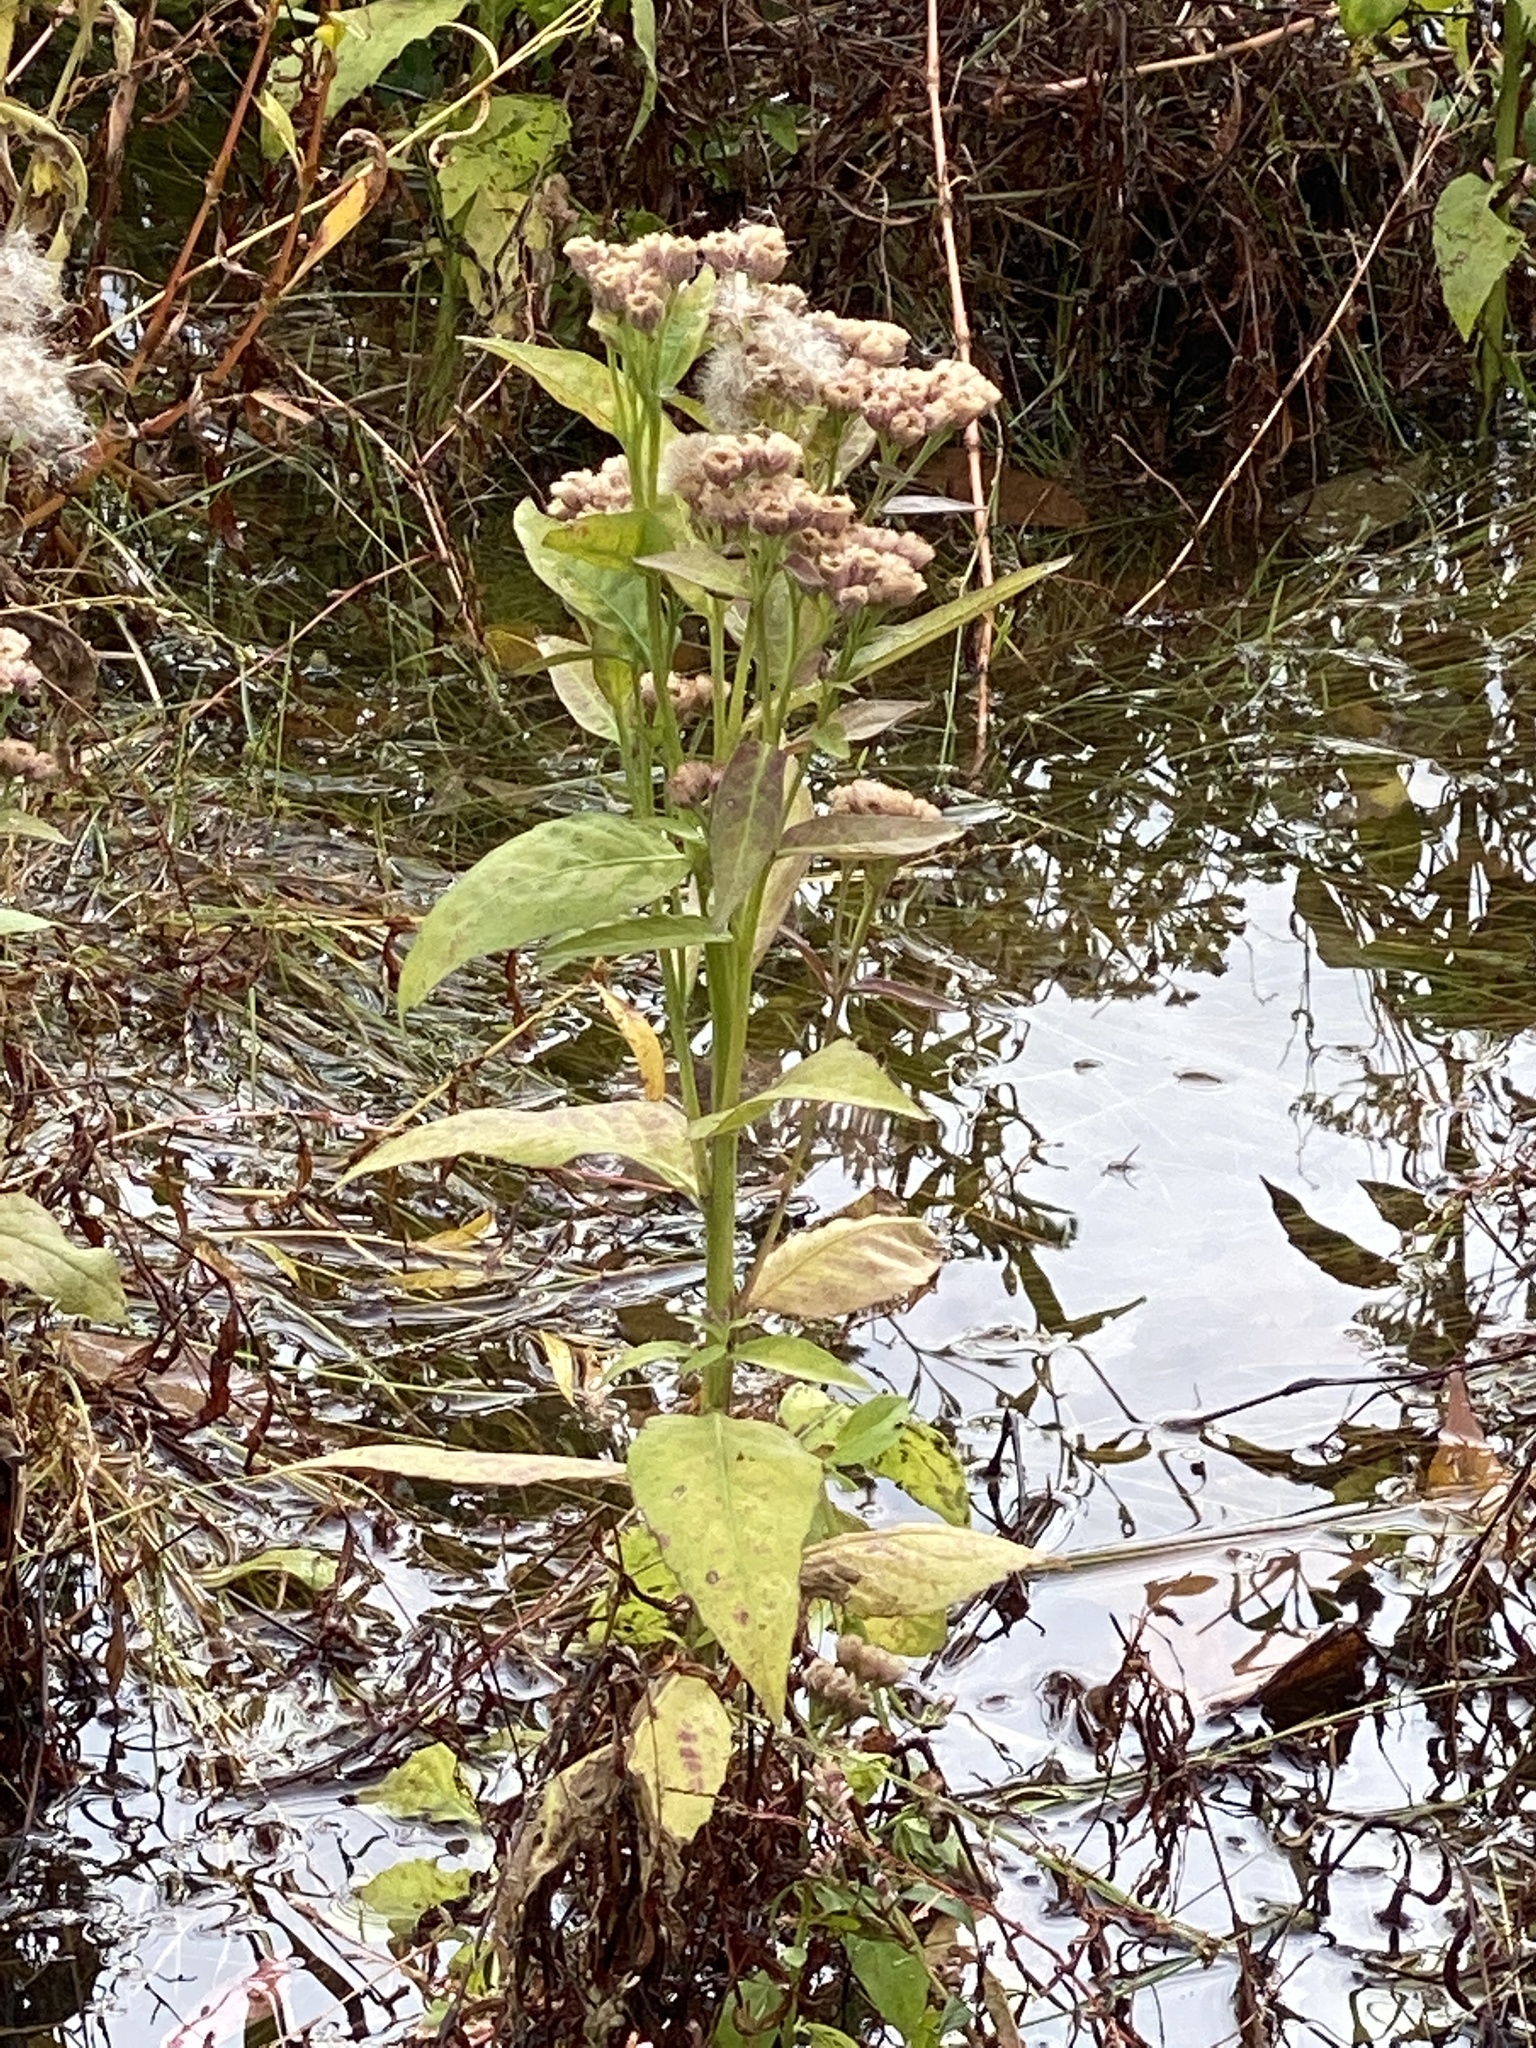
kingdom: Plantae
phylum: Tracheophyta
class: Magnoliopsida
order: Asterales
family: Asteraceae
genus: Pluchea
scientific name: Pluchea odorata
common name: Saltmarsh fleabane
